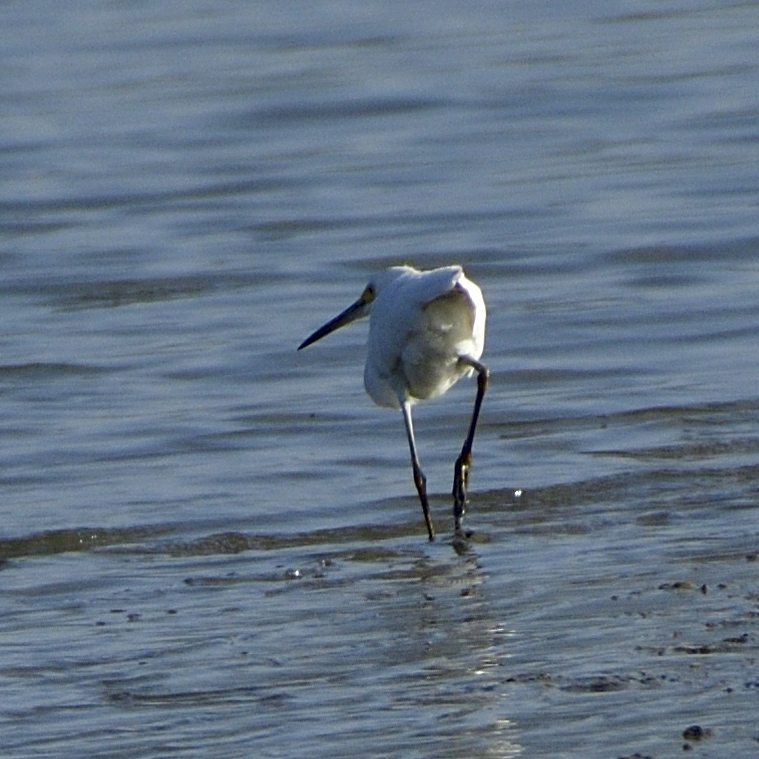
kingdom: Animalia
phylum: Chordata
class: Aves
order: Pelecaniformes
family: Ardeidae
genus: Egretta
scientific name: Egretta thula
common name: Snowy egret
